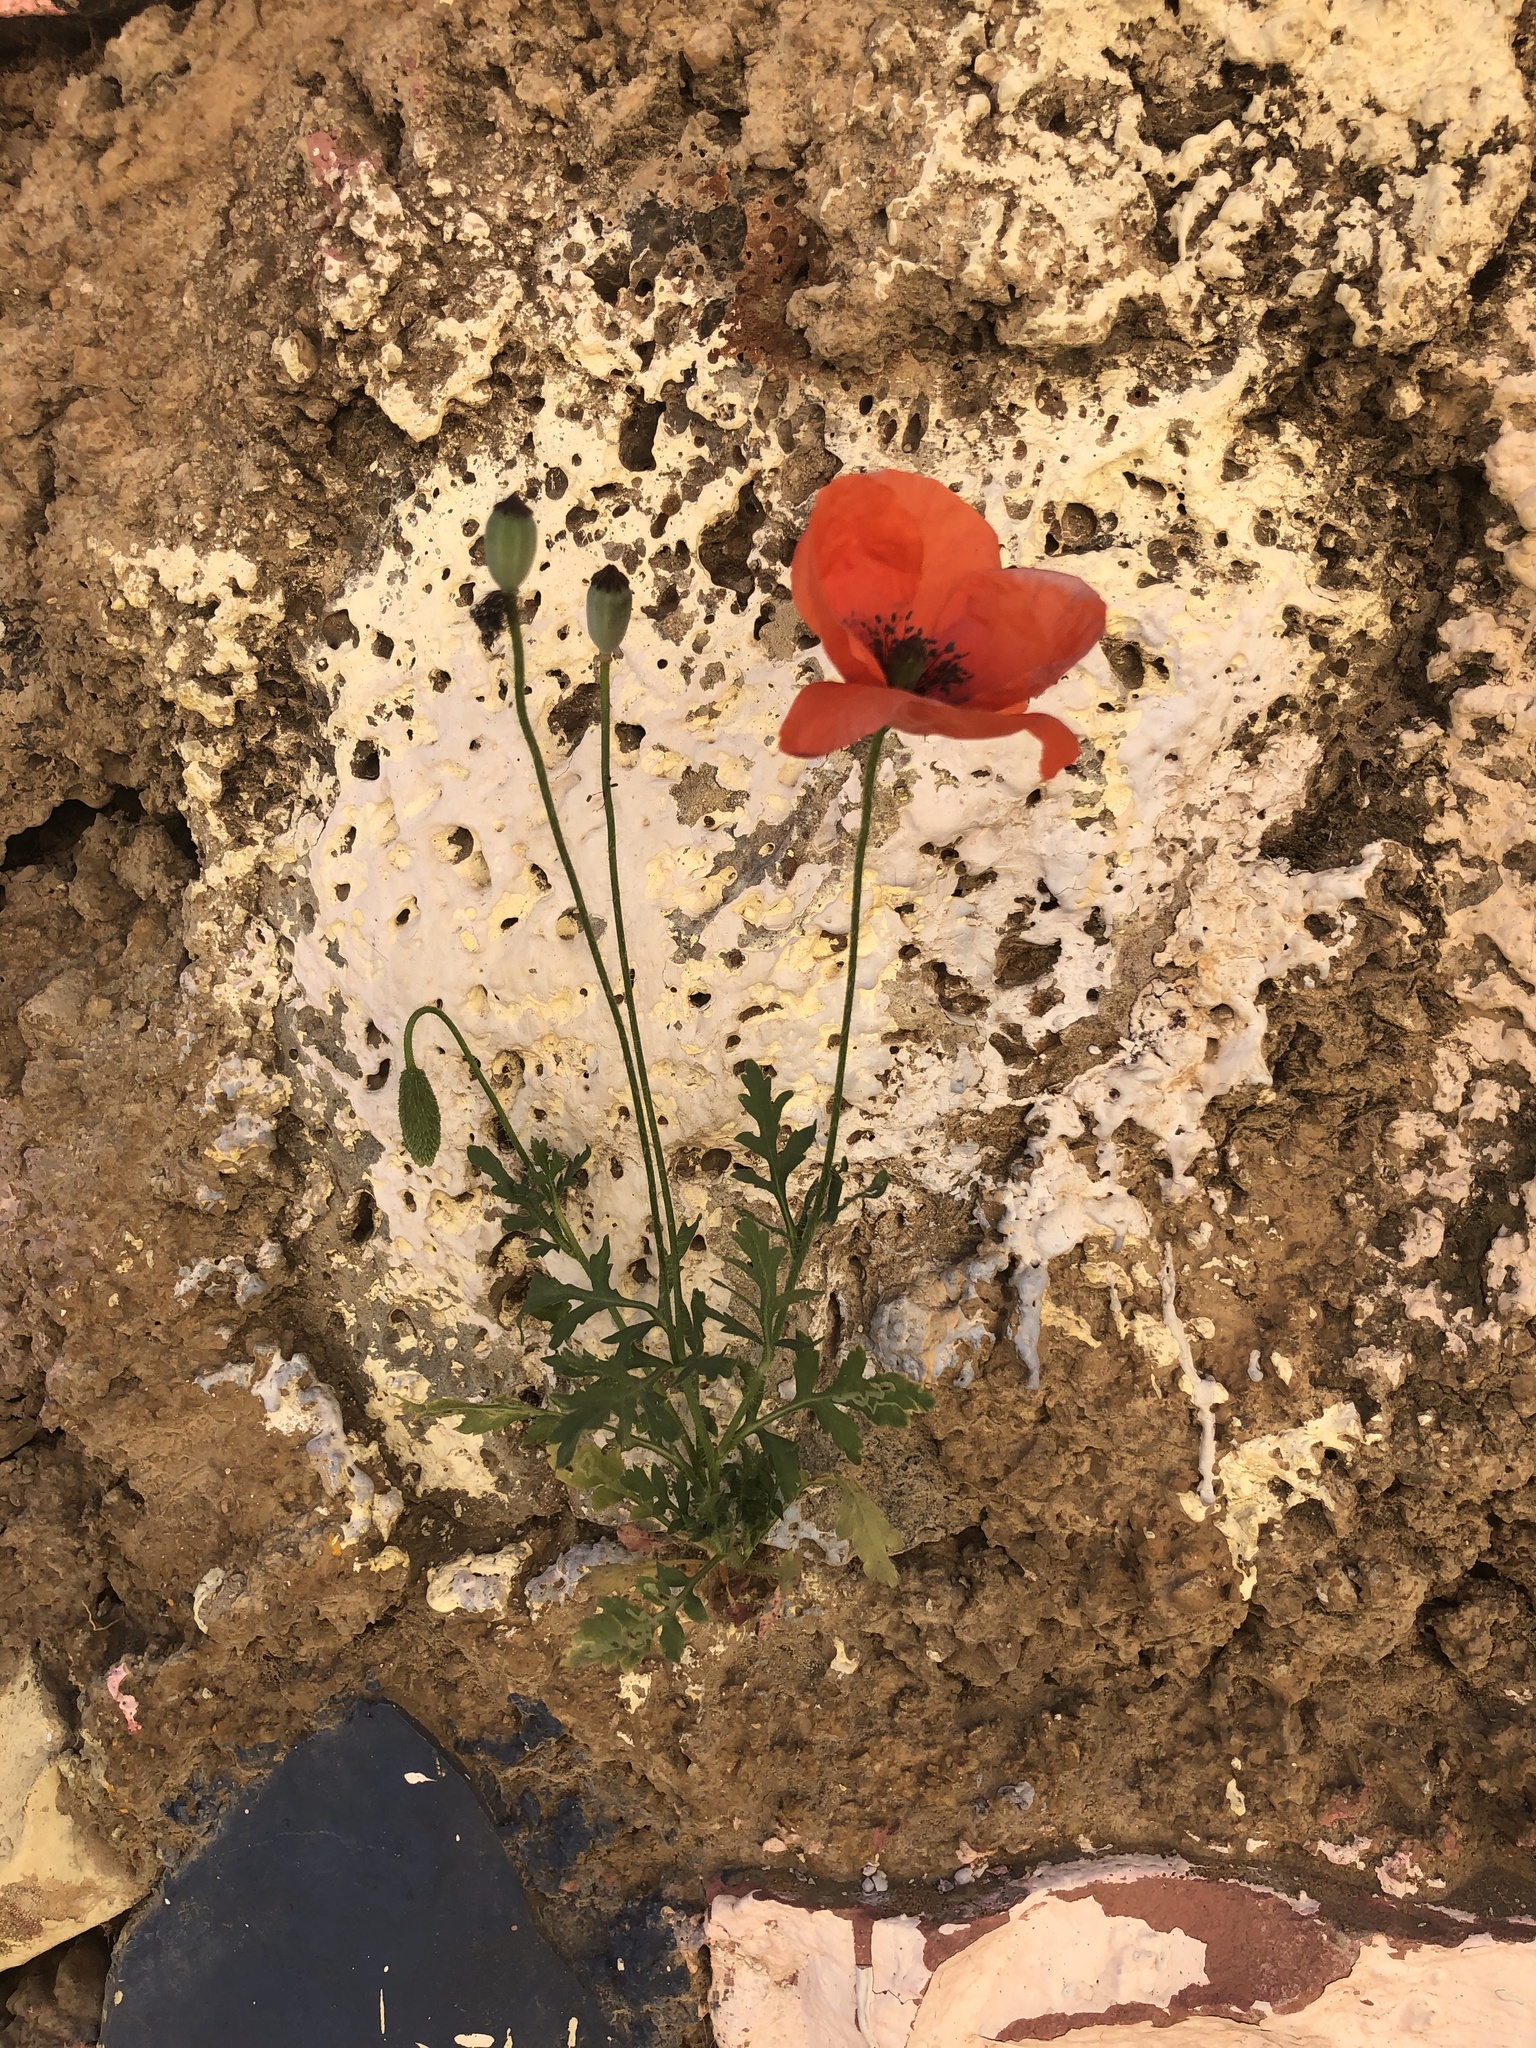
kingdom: Plantae
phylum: Tracheophyta
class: Magnoliopsida
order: Ranunculales
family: Papaveraceae
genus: Papaver
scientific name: Papaver rhoeas
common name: Corn poppy
